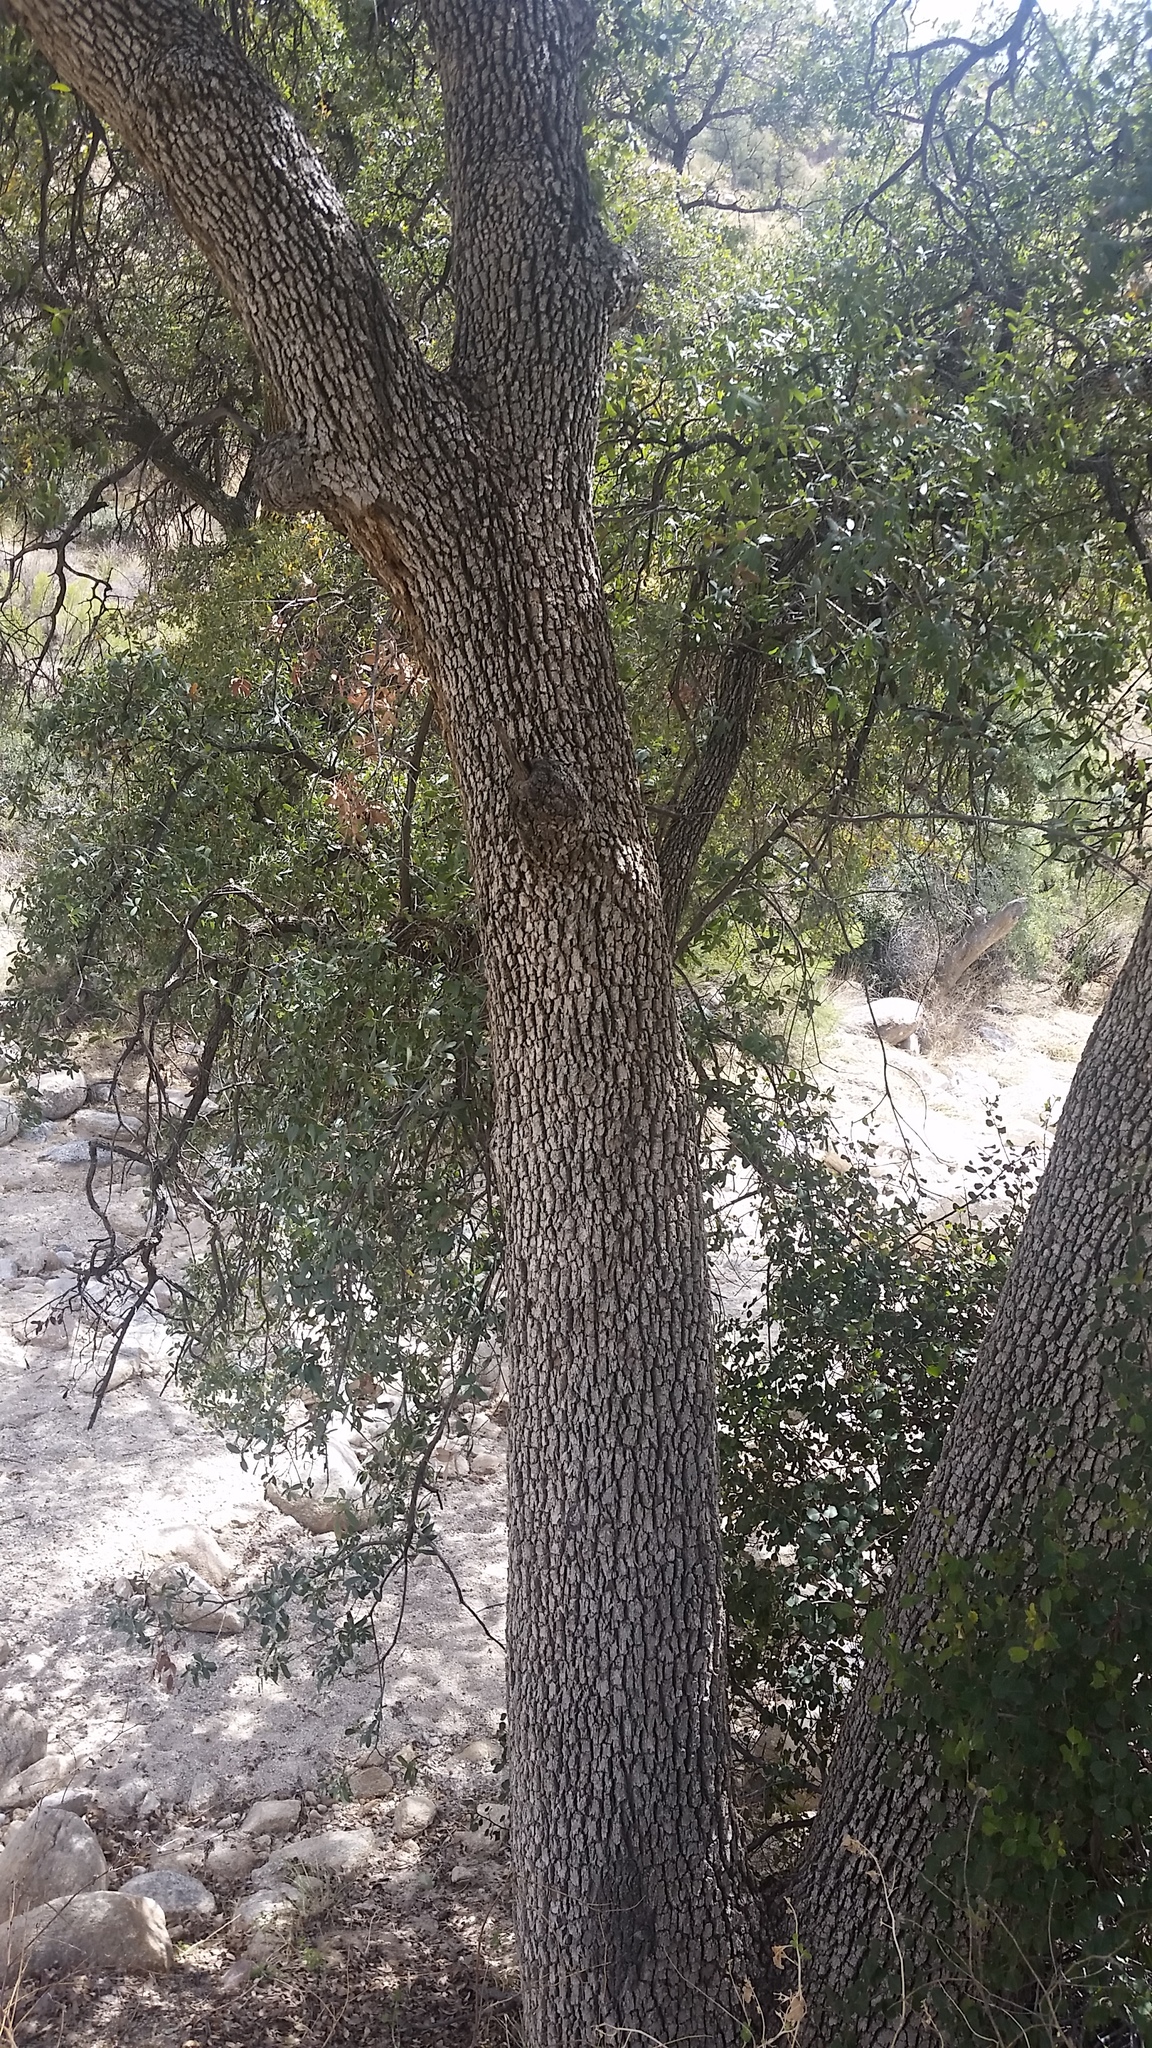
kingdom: Plantae
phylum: Tracheophyta
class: Magnoliopsida
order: Fagales
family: Fagaceae
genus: Quercus
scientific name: Quercus oblongifolia
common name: Mexican blue oak
